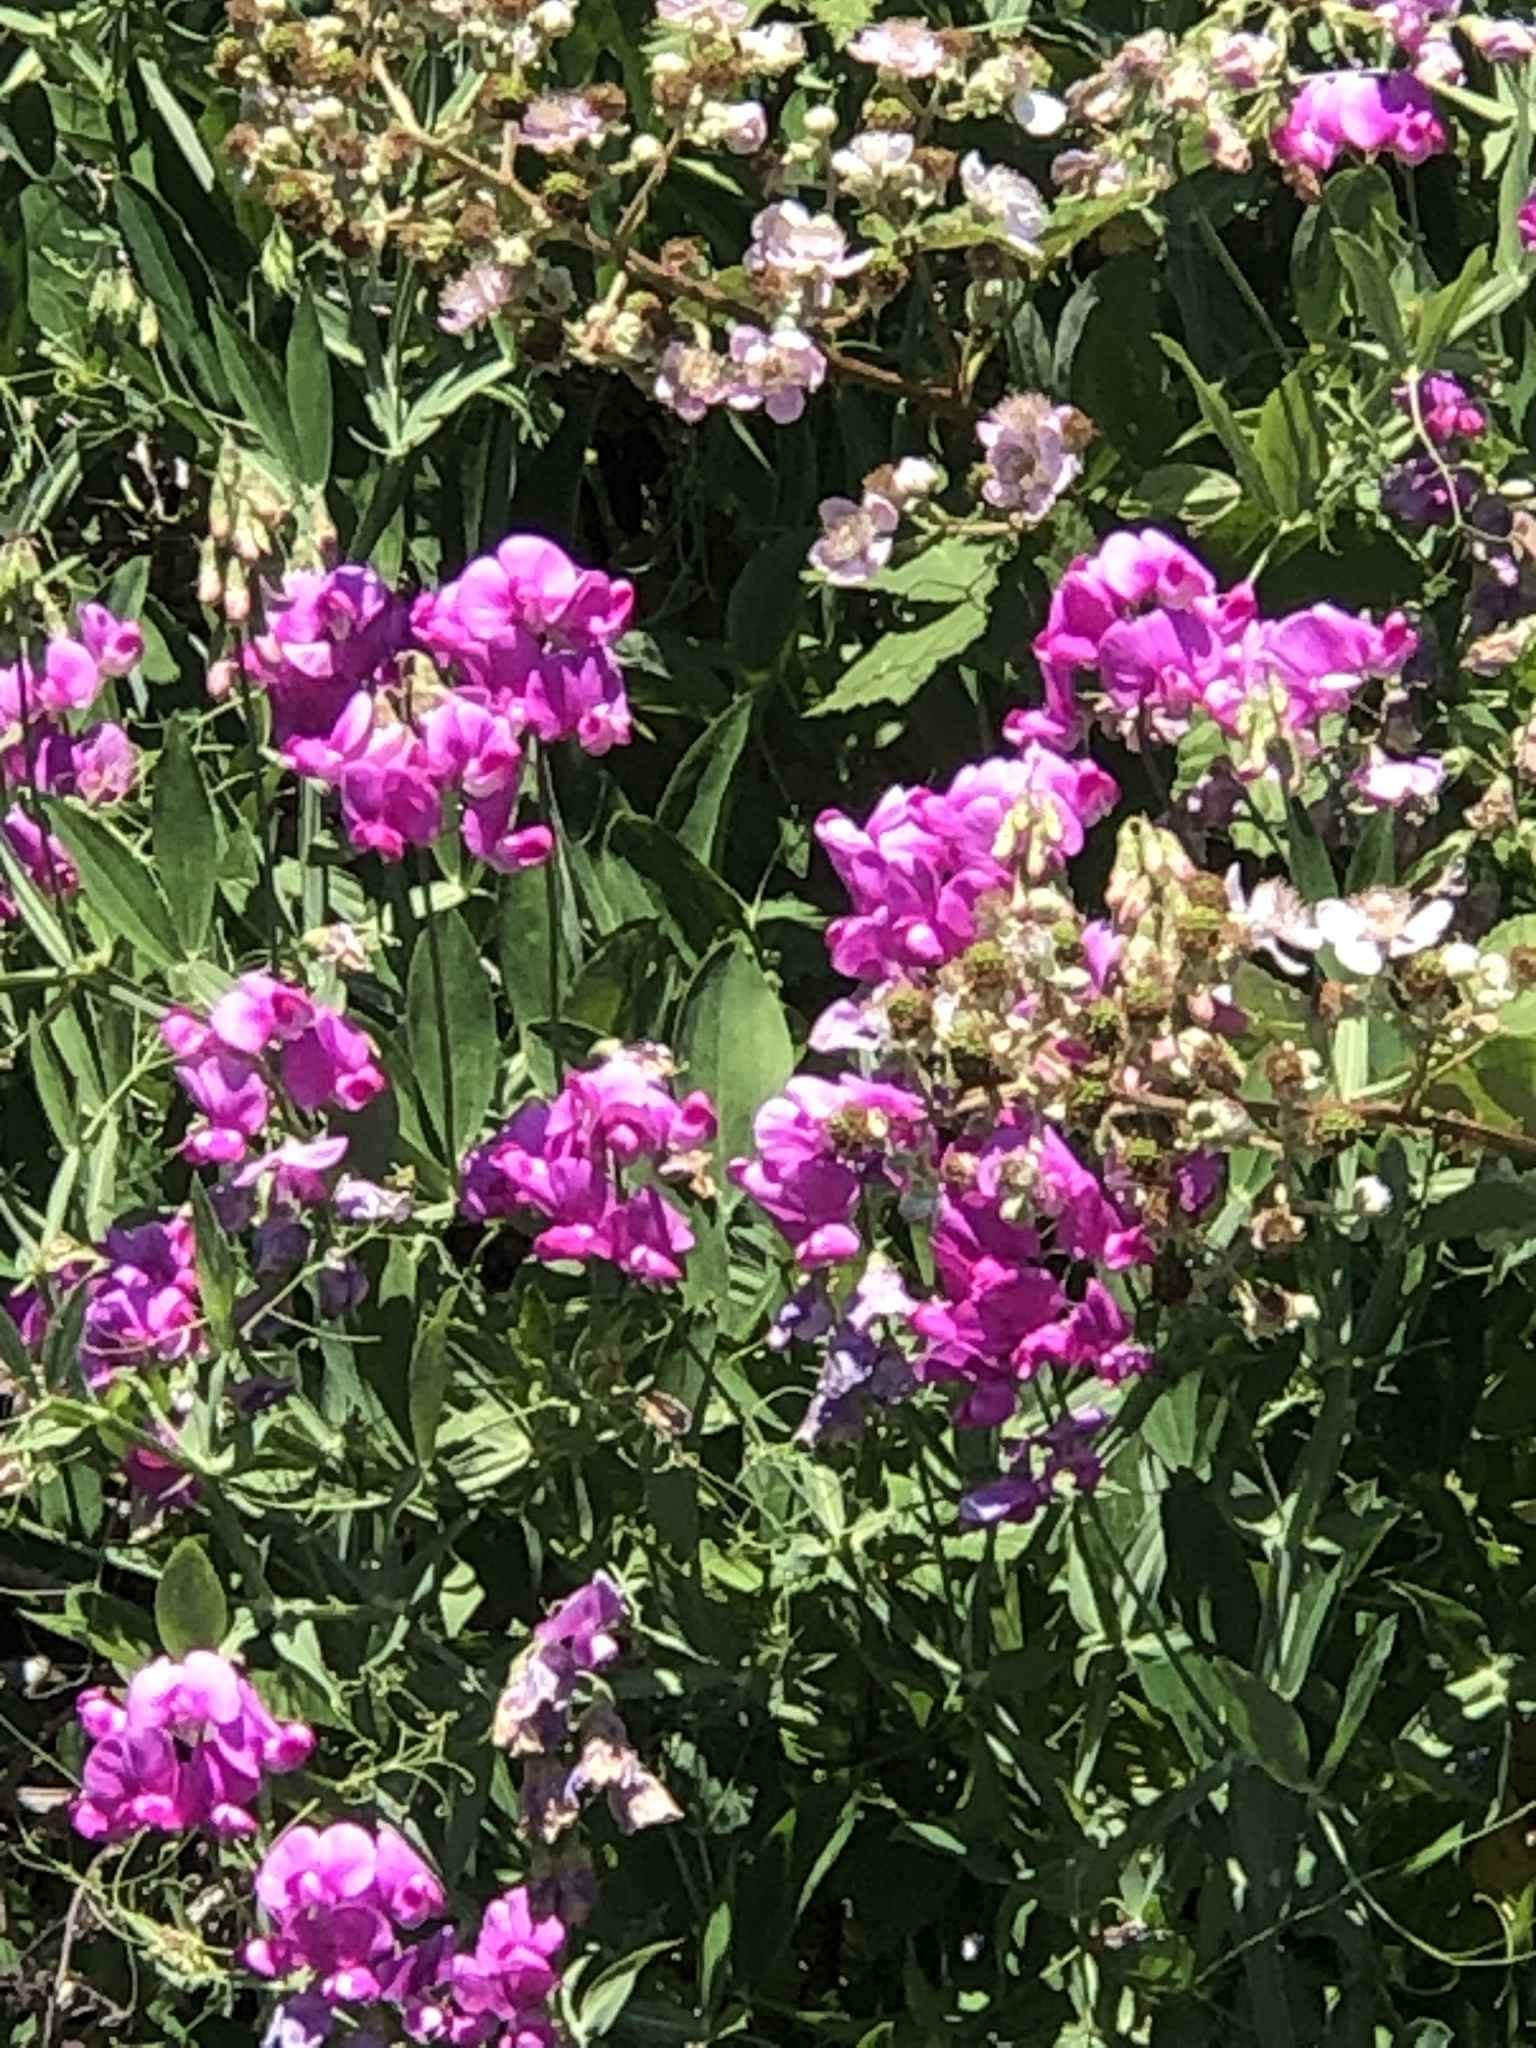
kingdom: Plantae
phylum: Tracheophyta
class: Magnoliopsida
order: Fabales
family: Fabaceae
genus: Lathyrus
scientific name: Lathyrus latifolius
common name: Perennial pea
